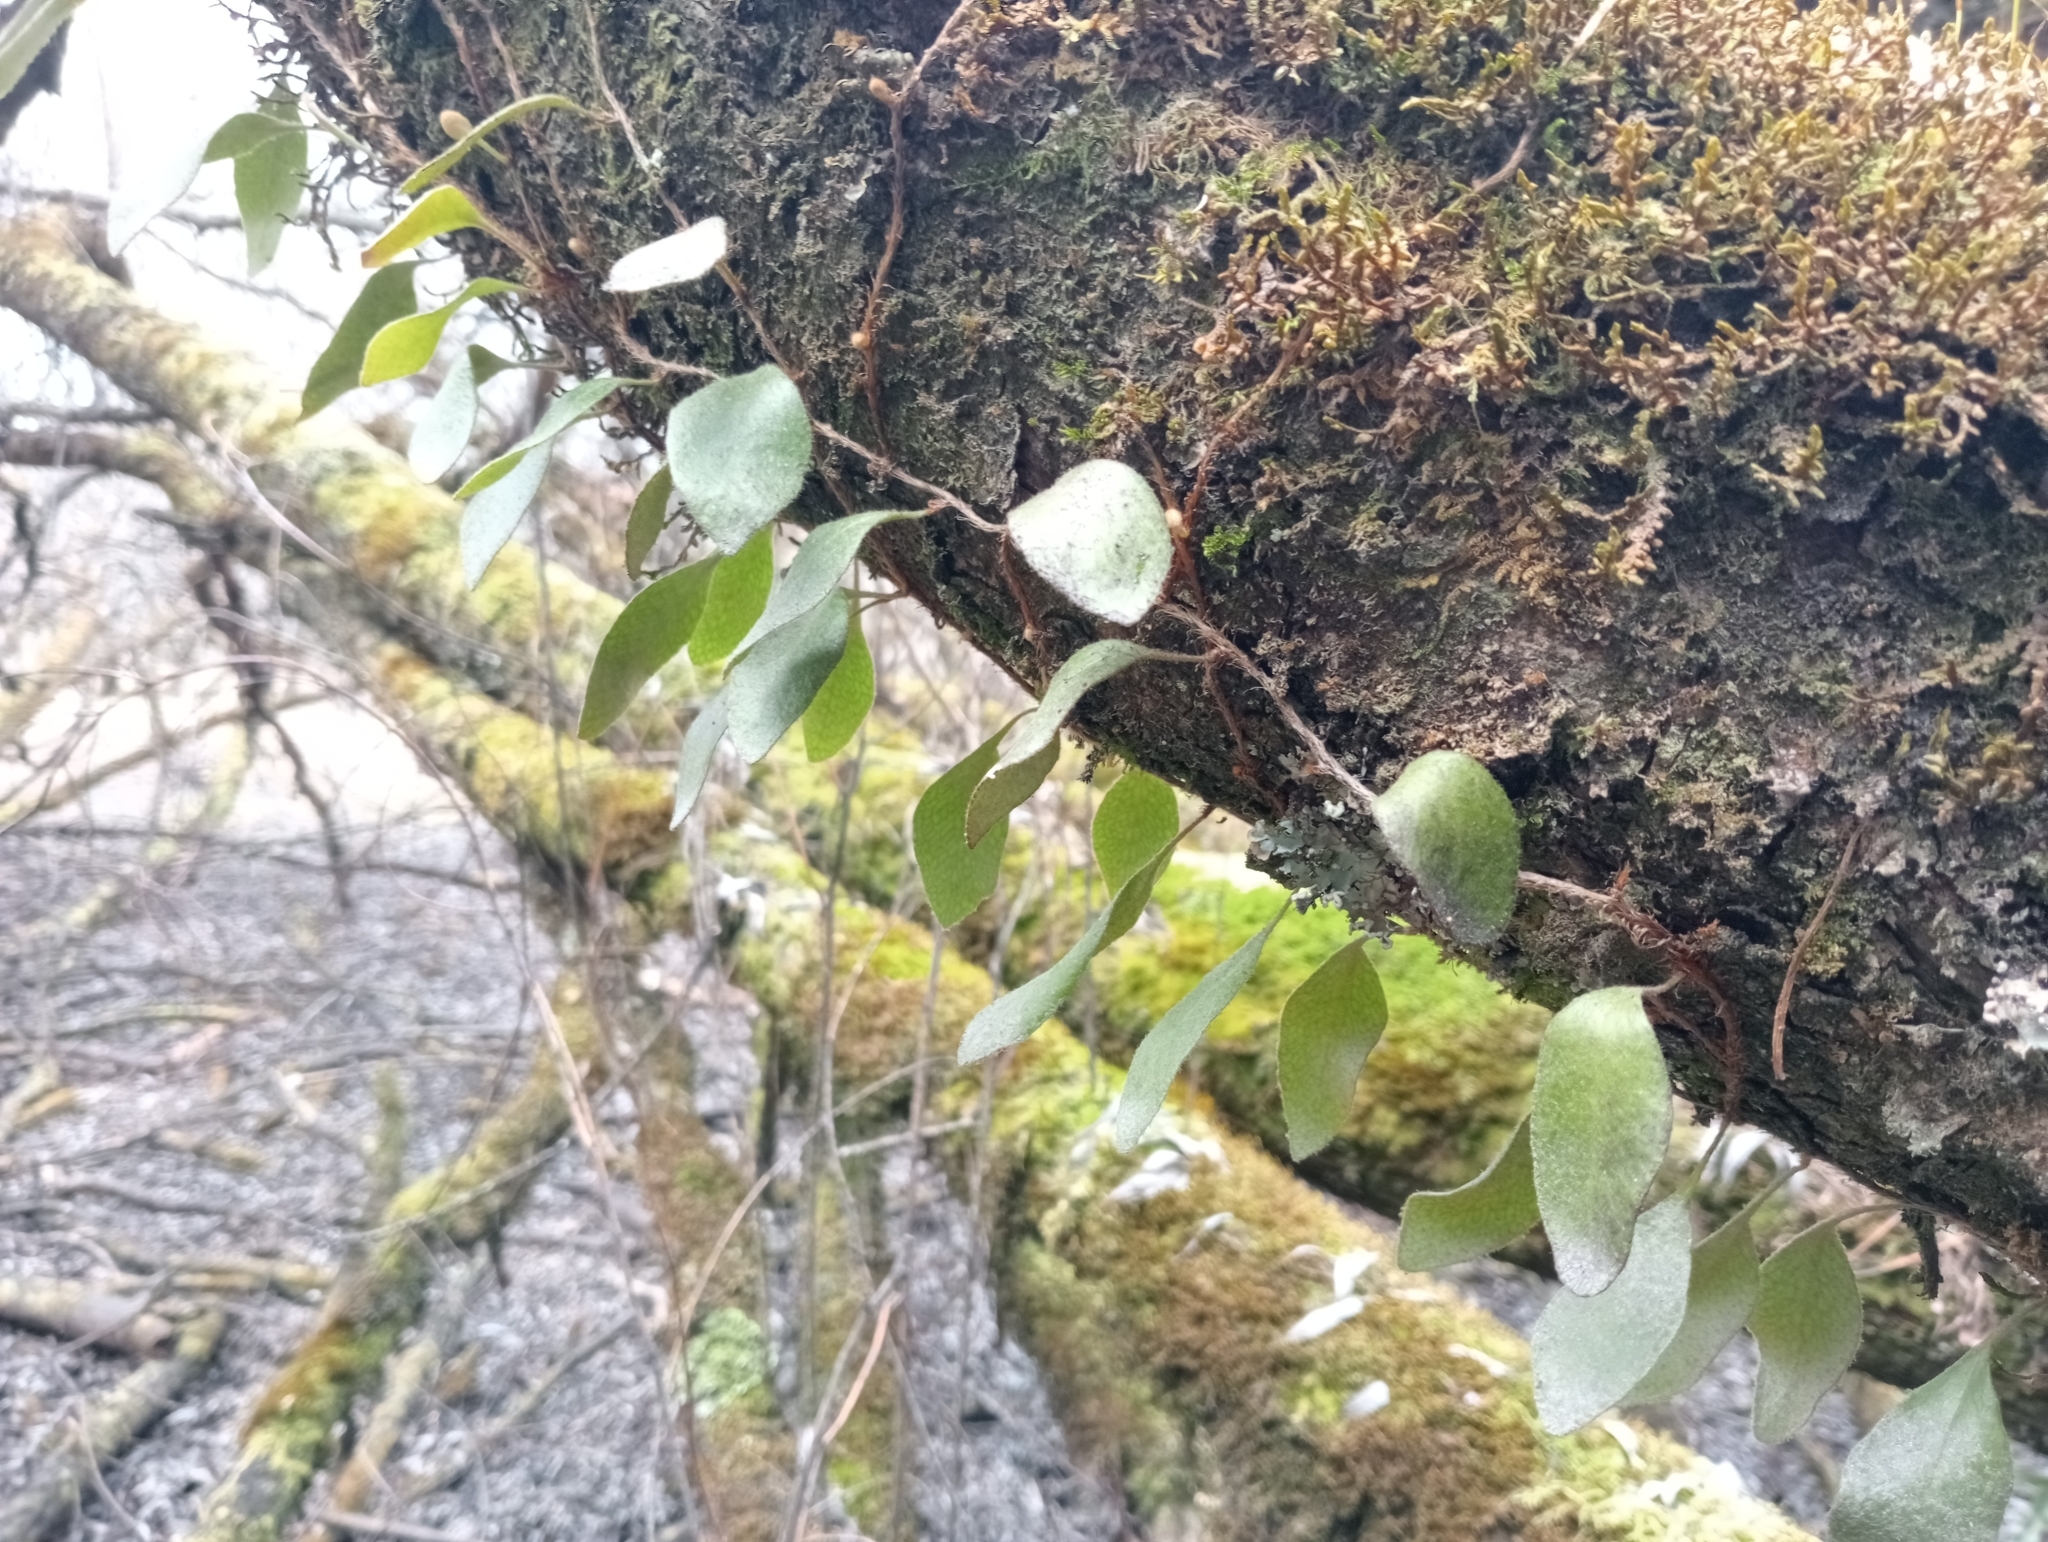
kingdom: Plantae
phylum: Tracheophyta
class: Polypodiopsida
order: Polypodiales
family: Polypodiaceae
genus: Pyrrosia
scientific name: Pyrrosia eleagnifolia
